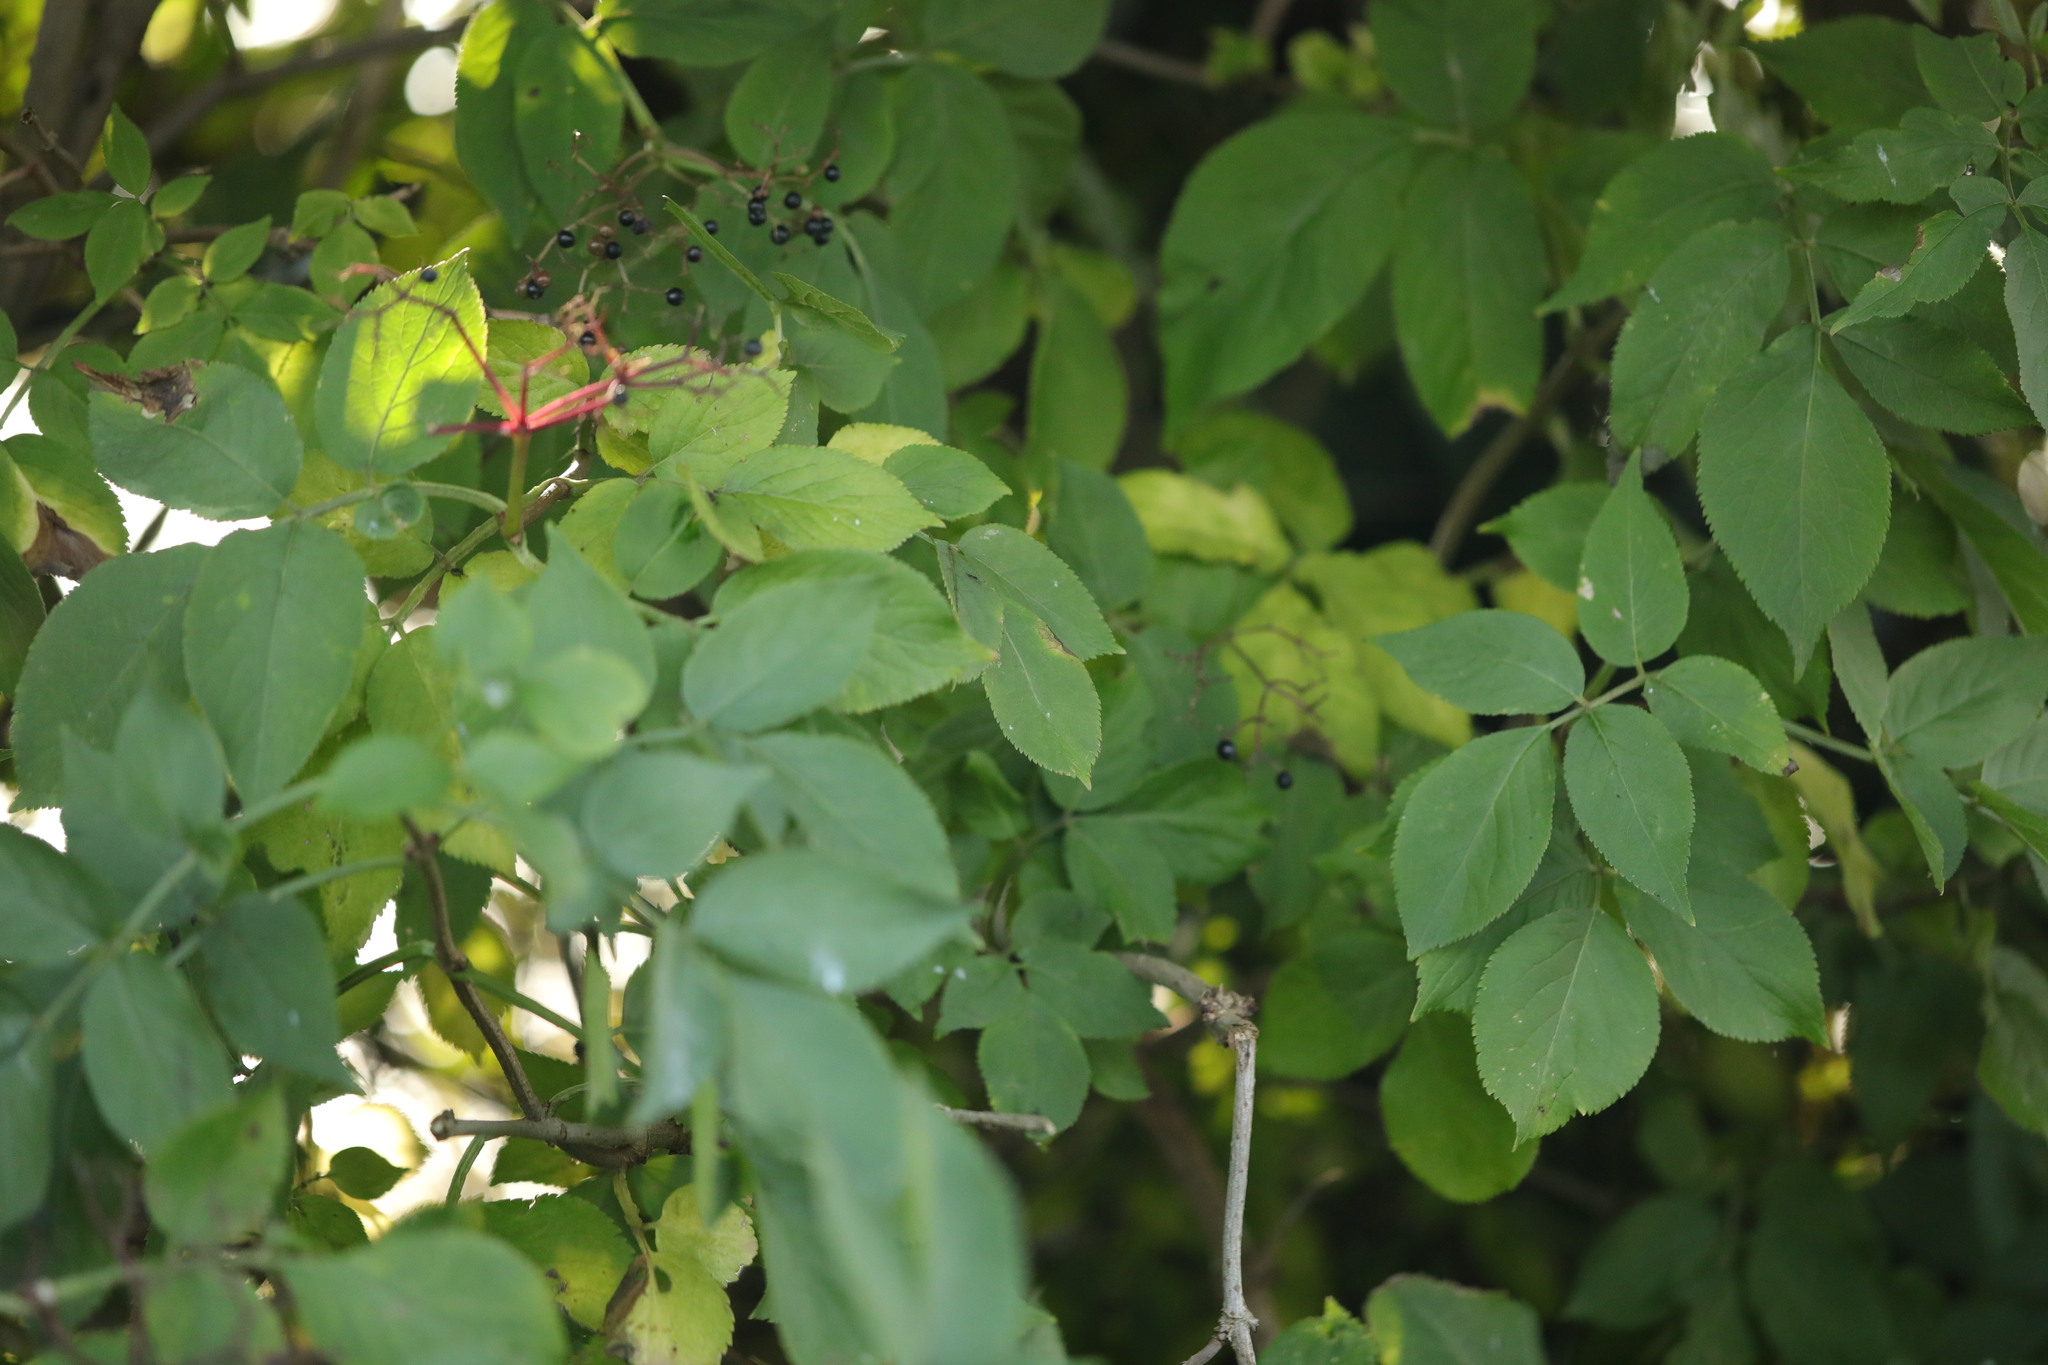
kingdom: Plantae
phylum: Tracheophyta
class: Magnoliopsida
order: Dipsacales
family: Viburnaceae
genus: Sambucus
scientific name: Sambucus nigra
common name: Elder
